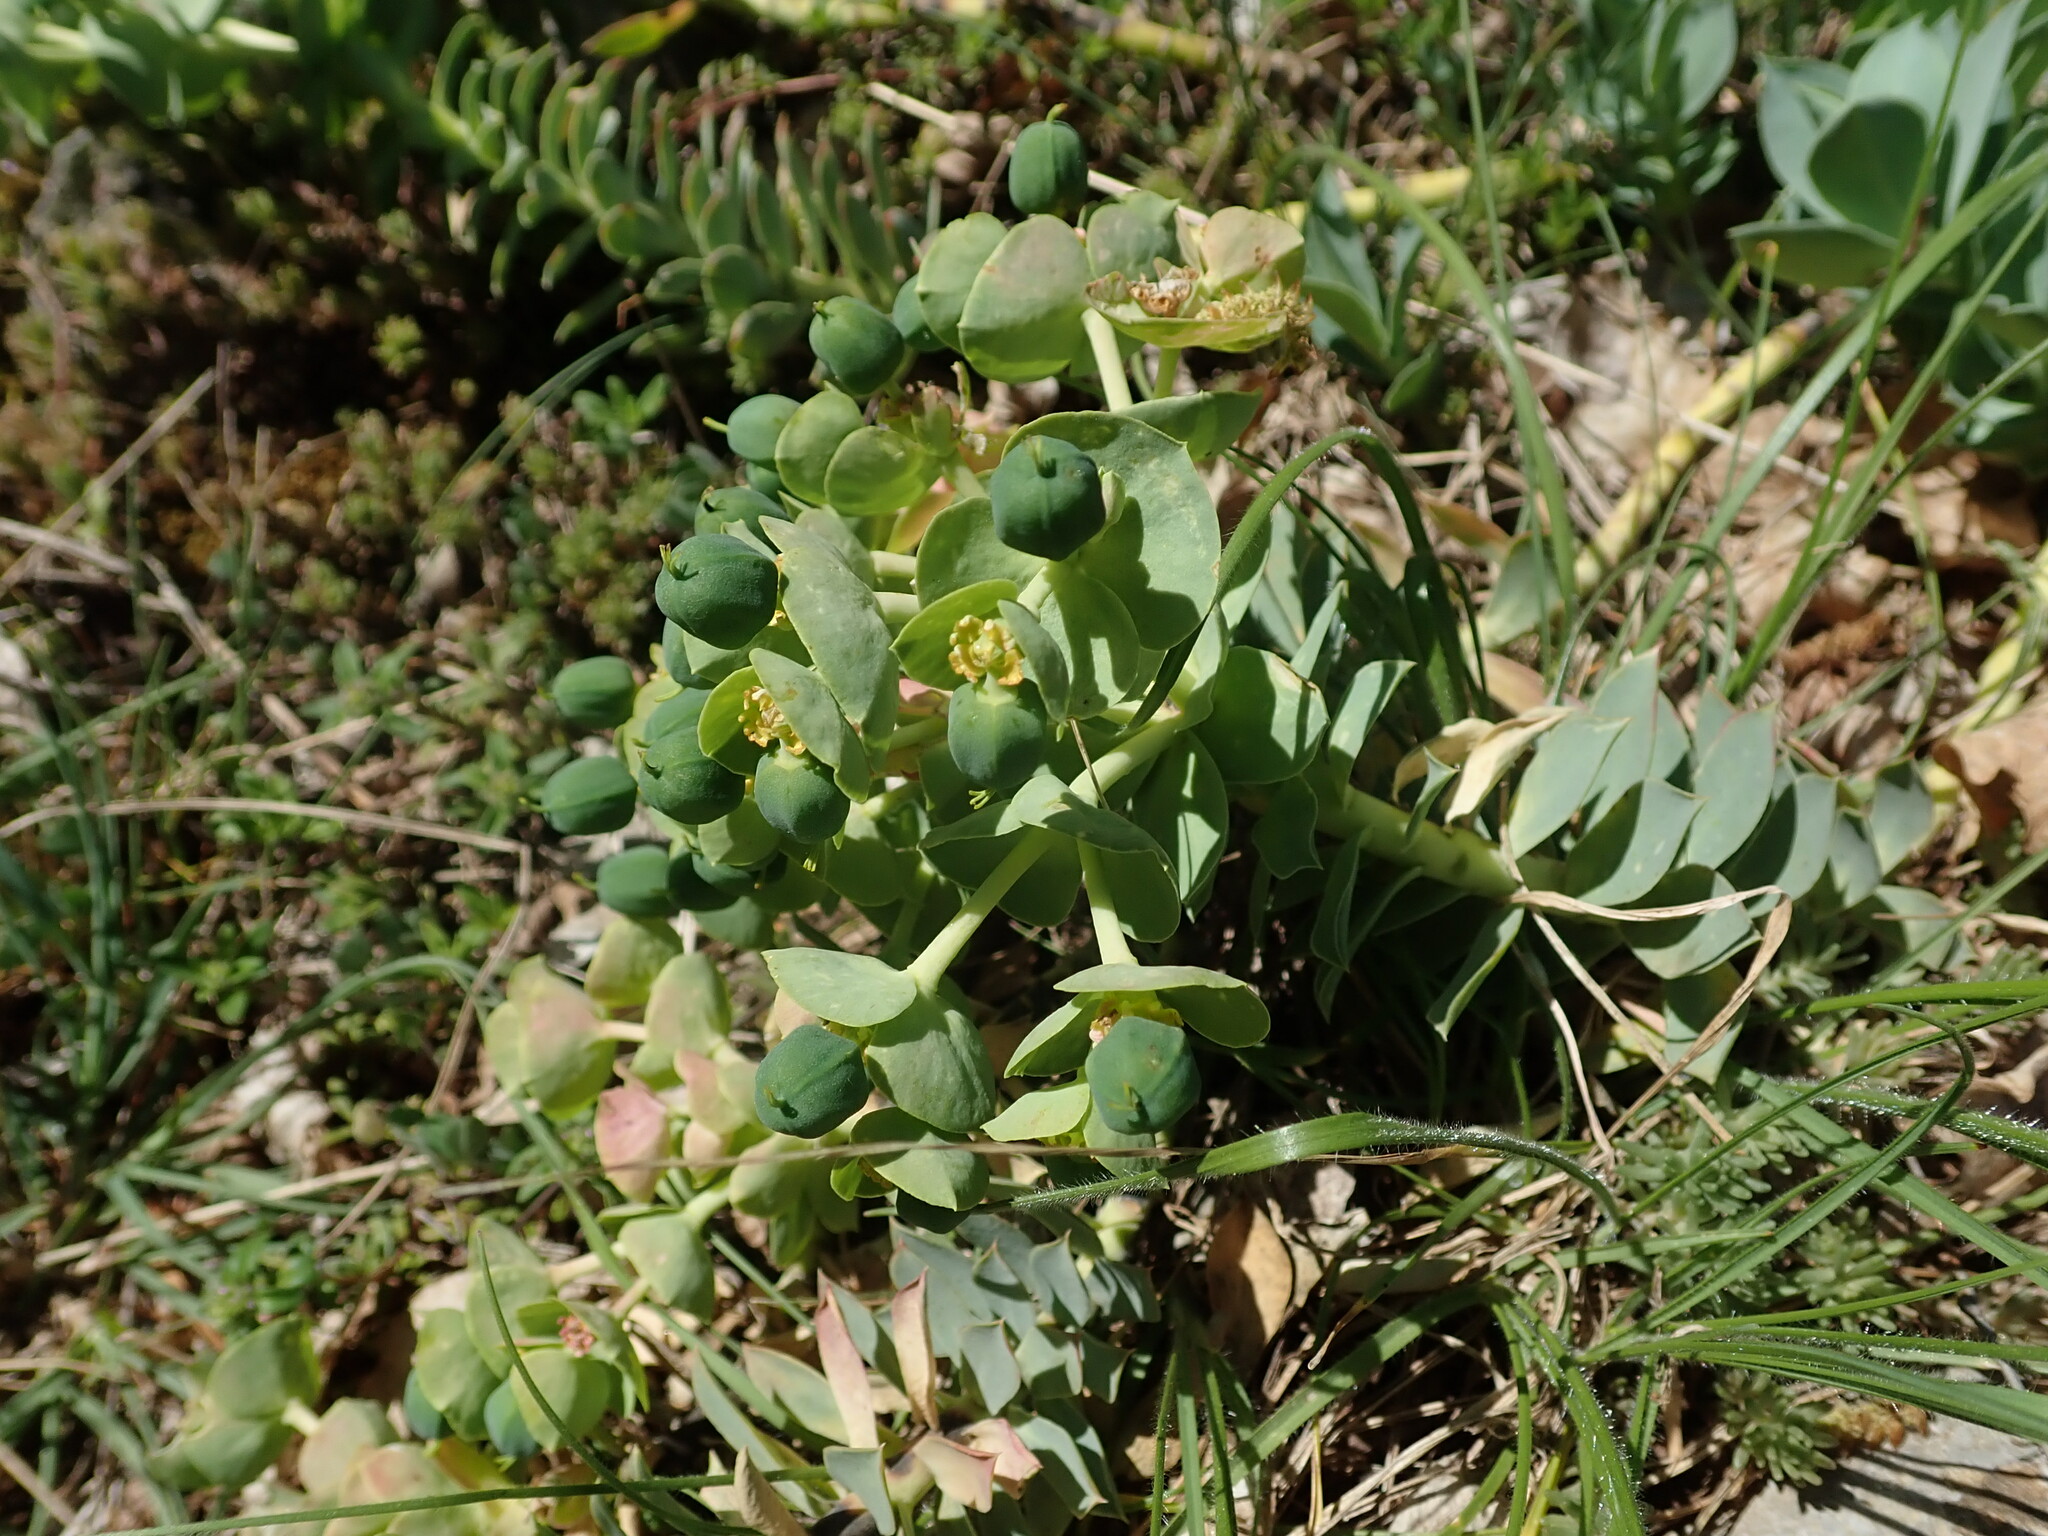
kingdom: Plantae
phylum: Tracheophyta
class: Magnoliopsida
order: Malpighiales
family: Euphorbiaceae
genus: Euphorbia
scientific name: Euphorbia myrsinites
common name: Myrtle spurge
